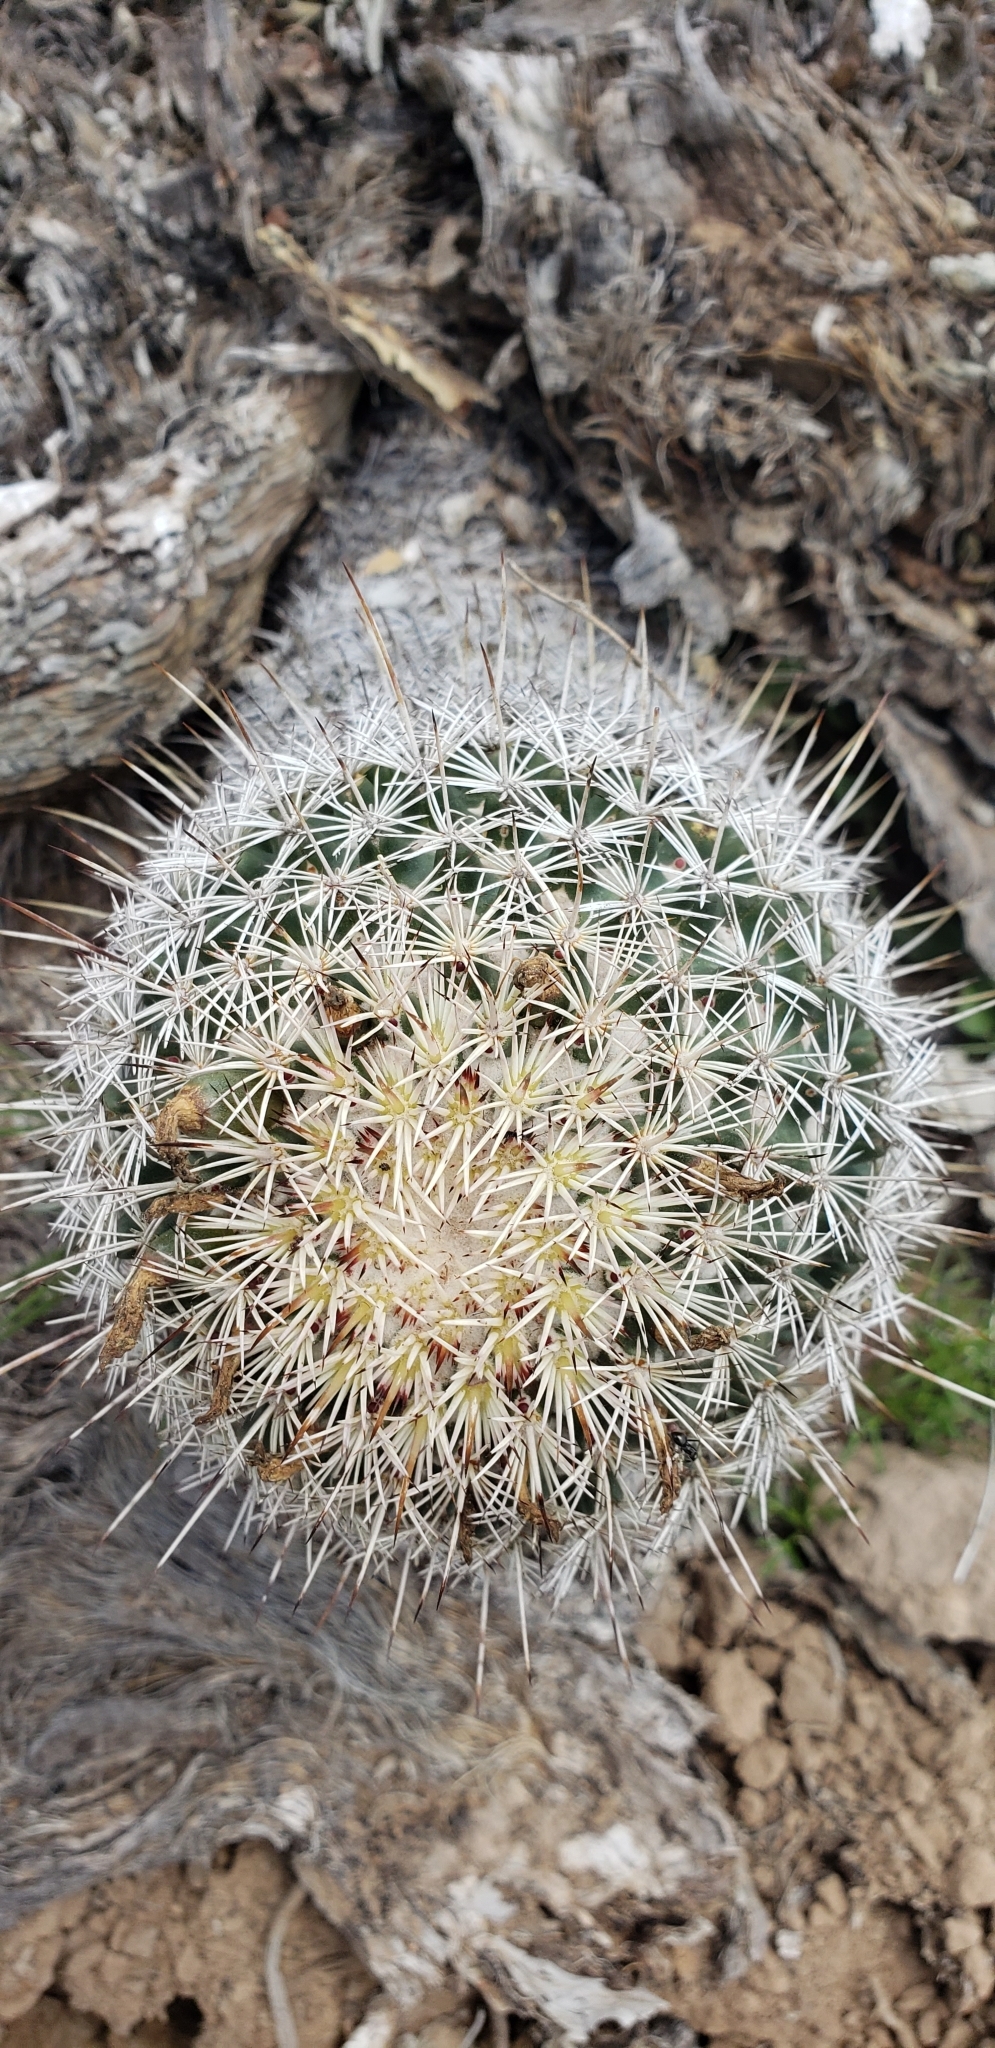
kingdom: Plantae
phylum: Tracheophyta
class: Magnoliopsida
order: Caryophyllales
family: Cactaceae
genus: Coryphantha
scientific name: Coryphantha potosiana
